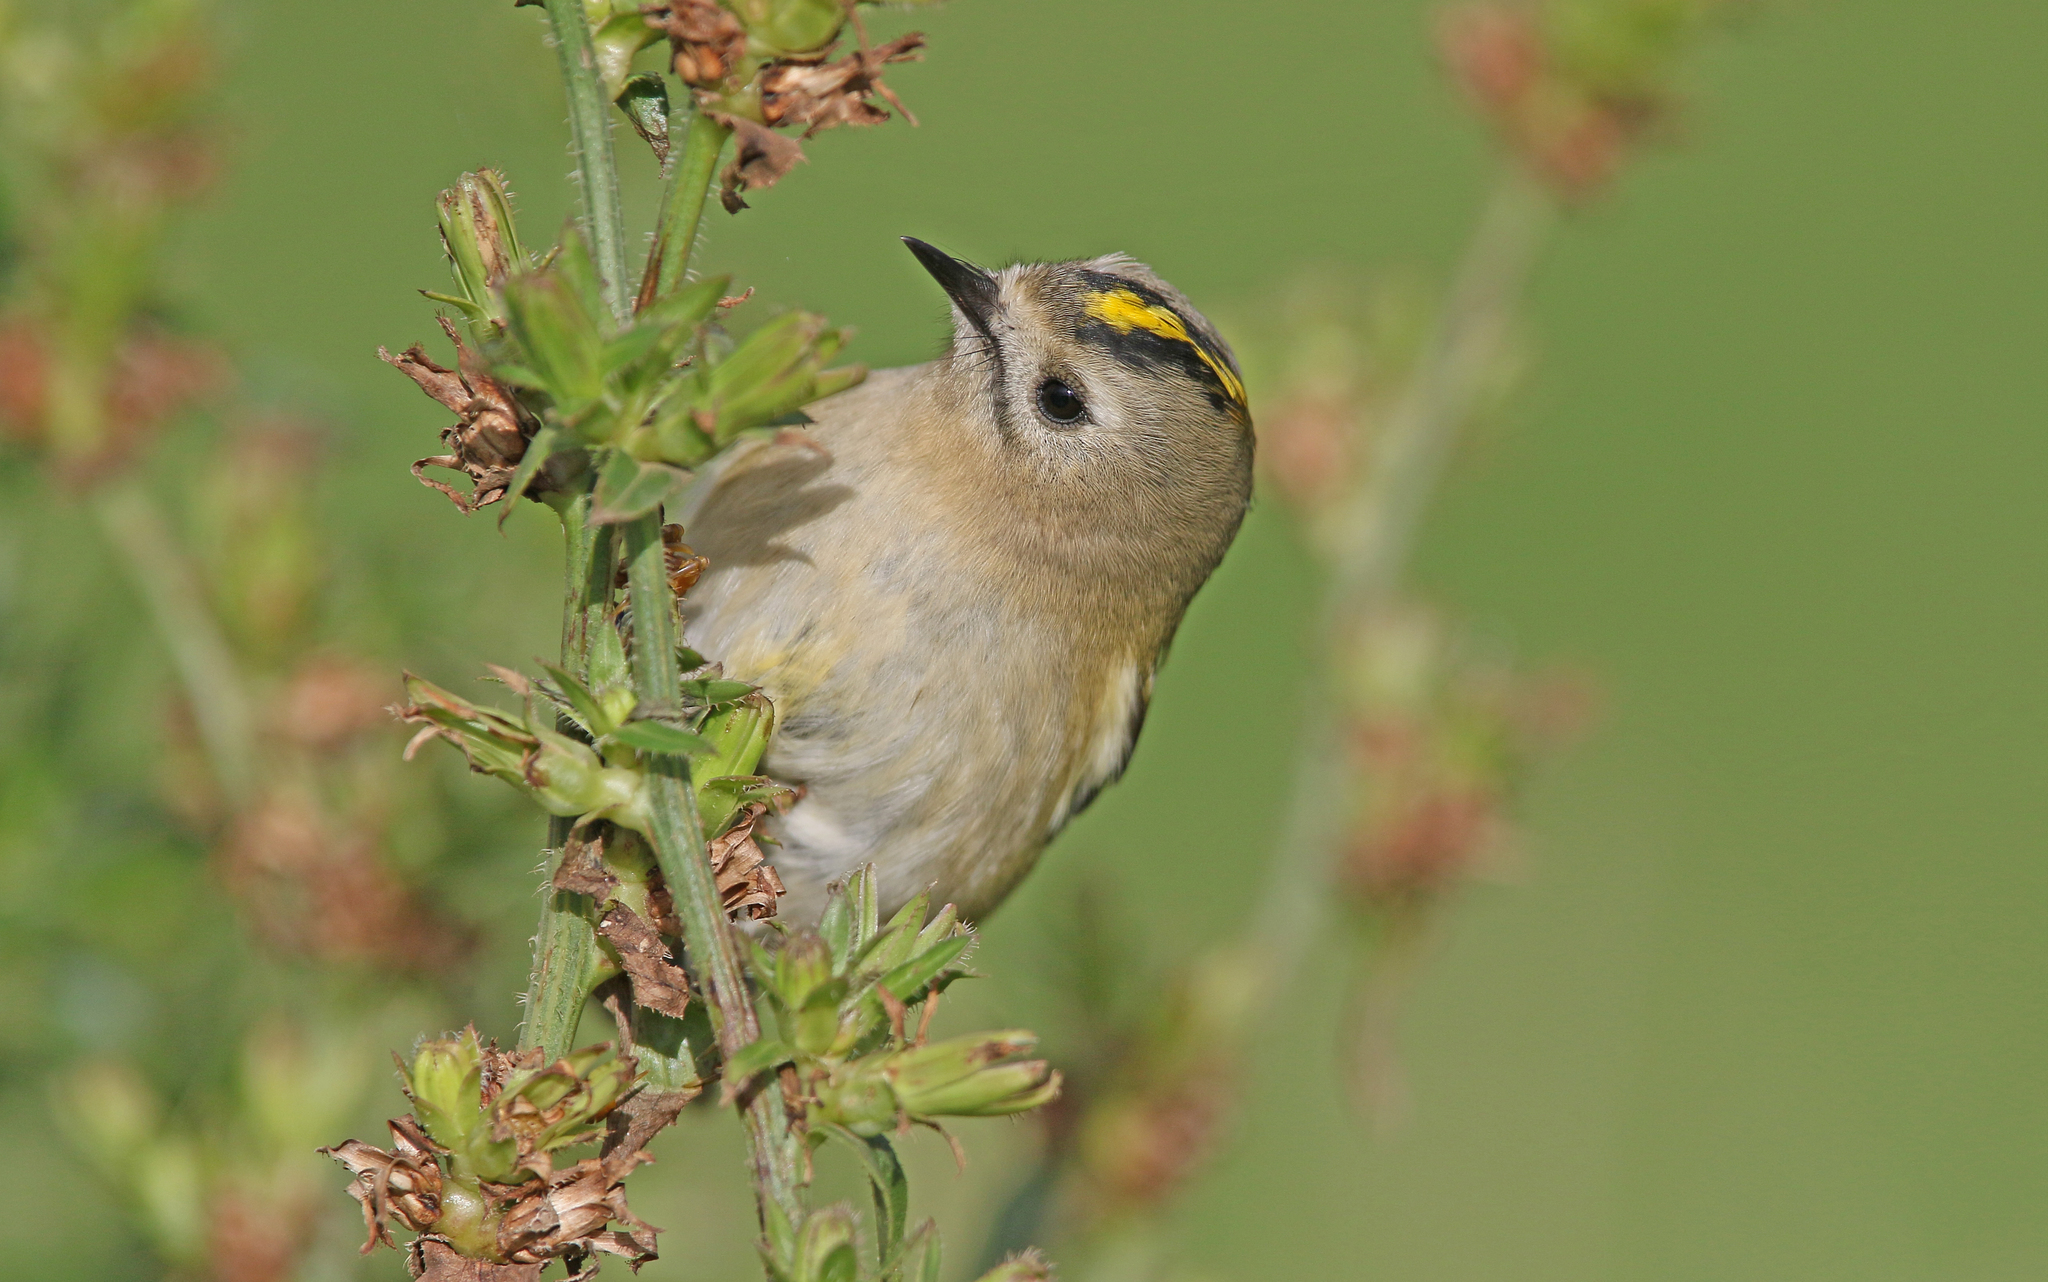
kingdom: Animalia
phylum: Chordata
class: Aves
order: Passeriformes
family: Regulidae
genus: Regulus
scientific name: Regulus regulus
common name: Goldcrest
